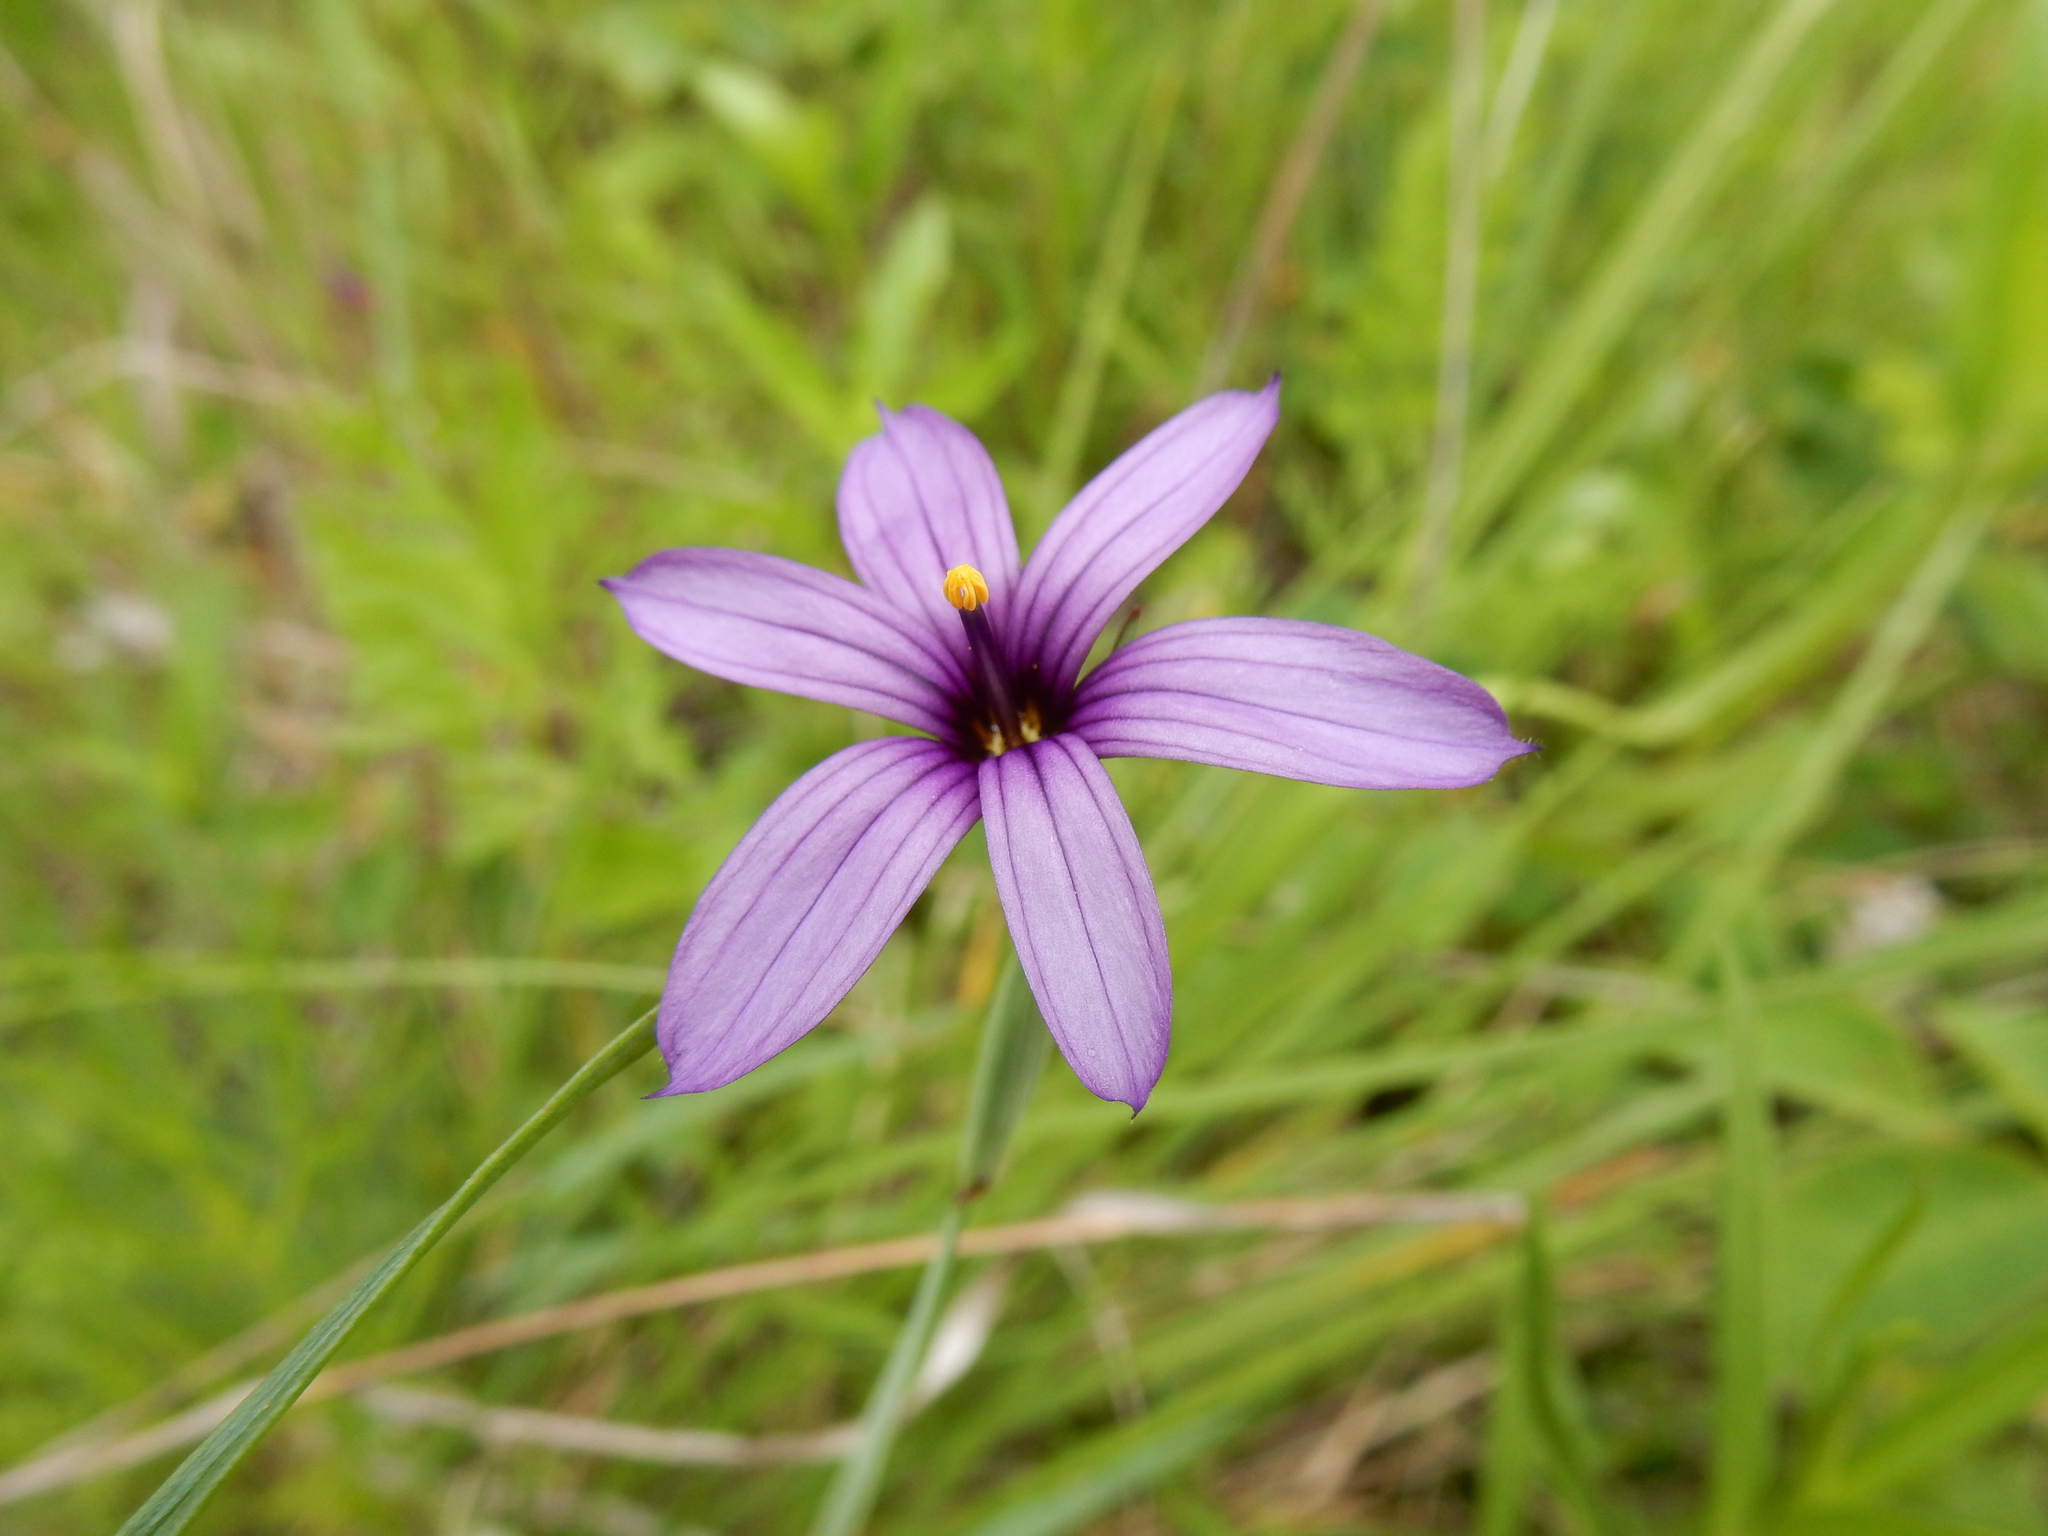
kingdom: Plantae
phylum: Tracheophyta
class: Liliopsida
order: Asparagales
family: Iridaceae
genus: Sisyrinchium
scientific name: Sisyrinchium hitchcockii
